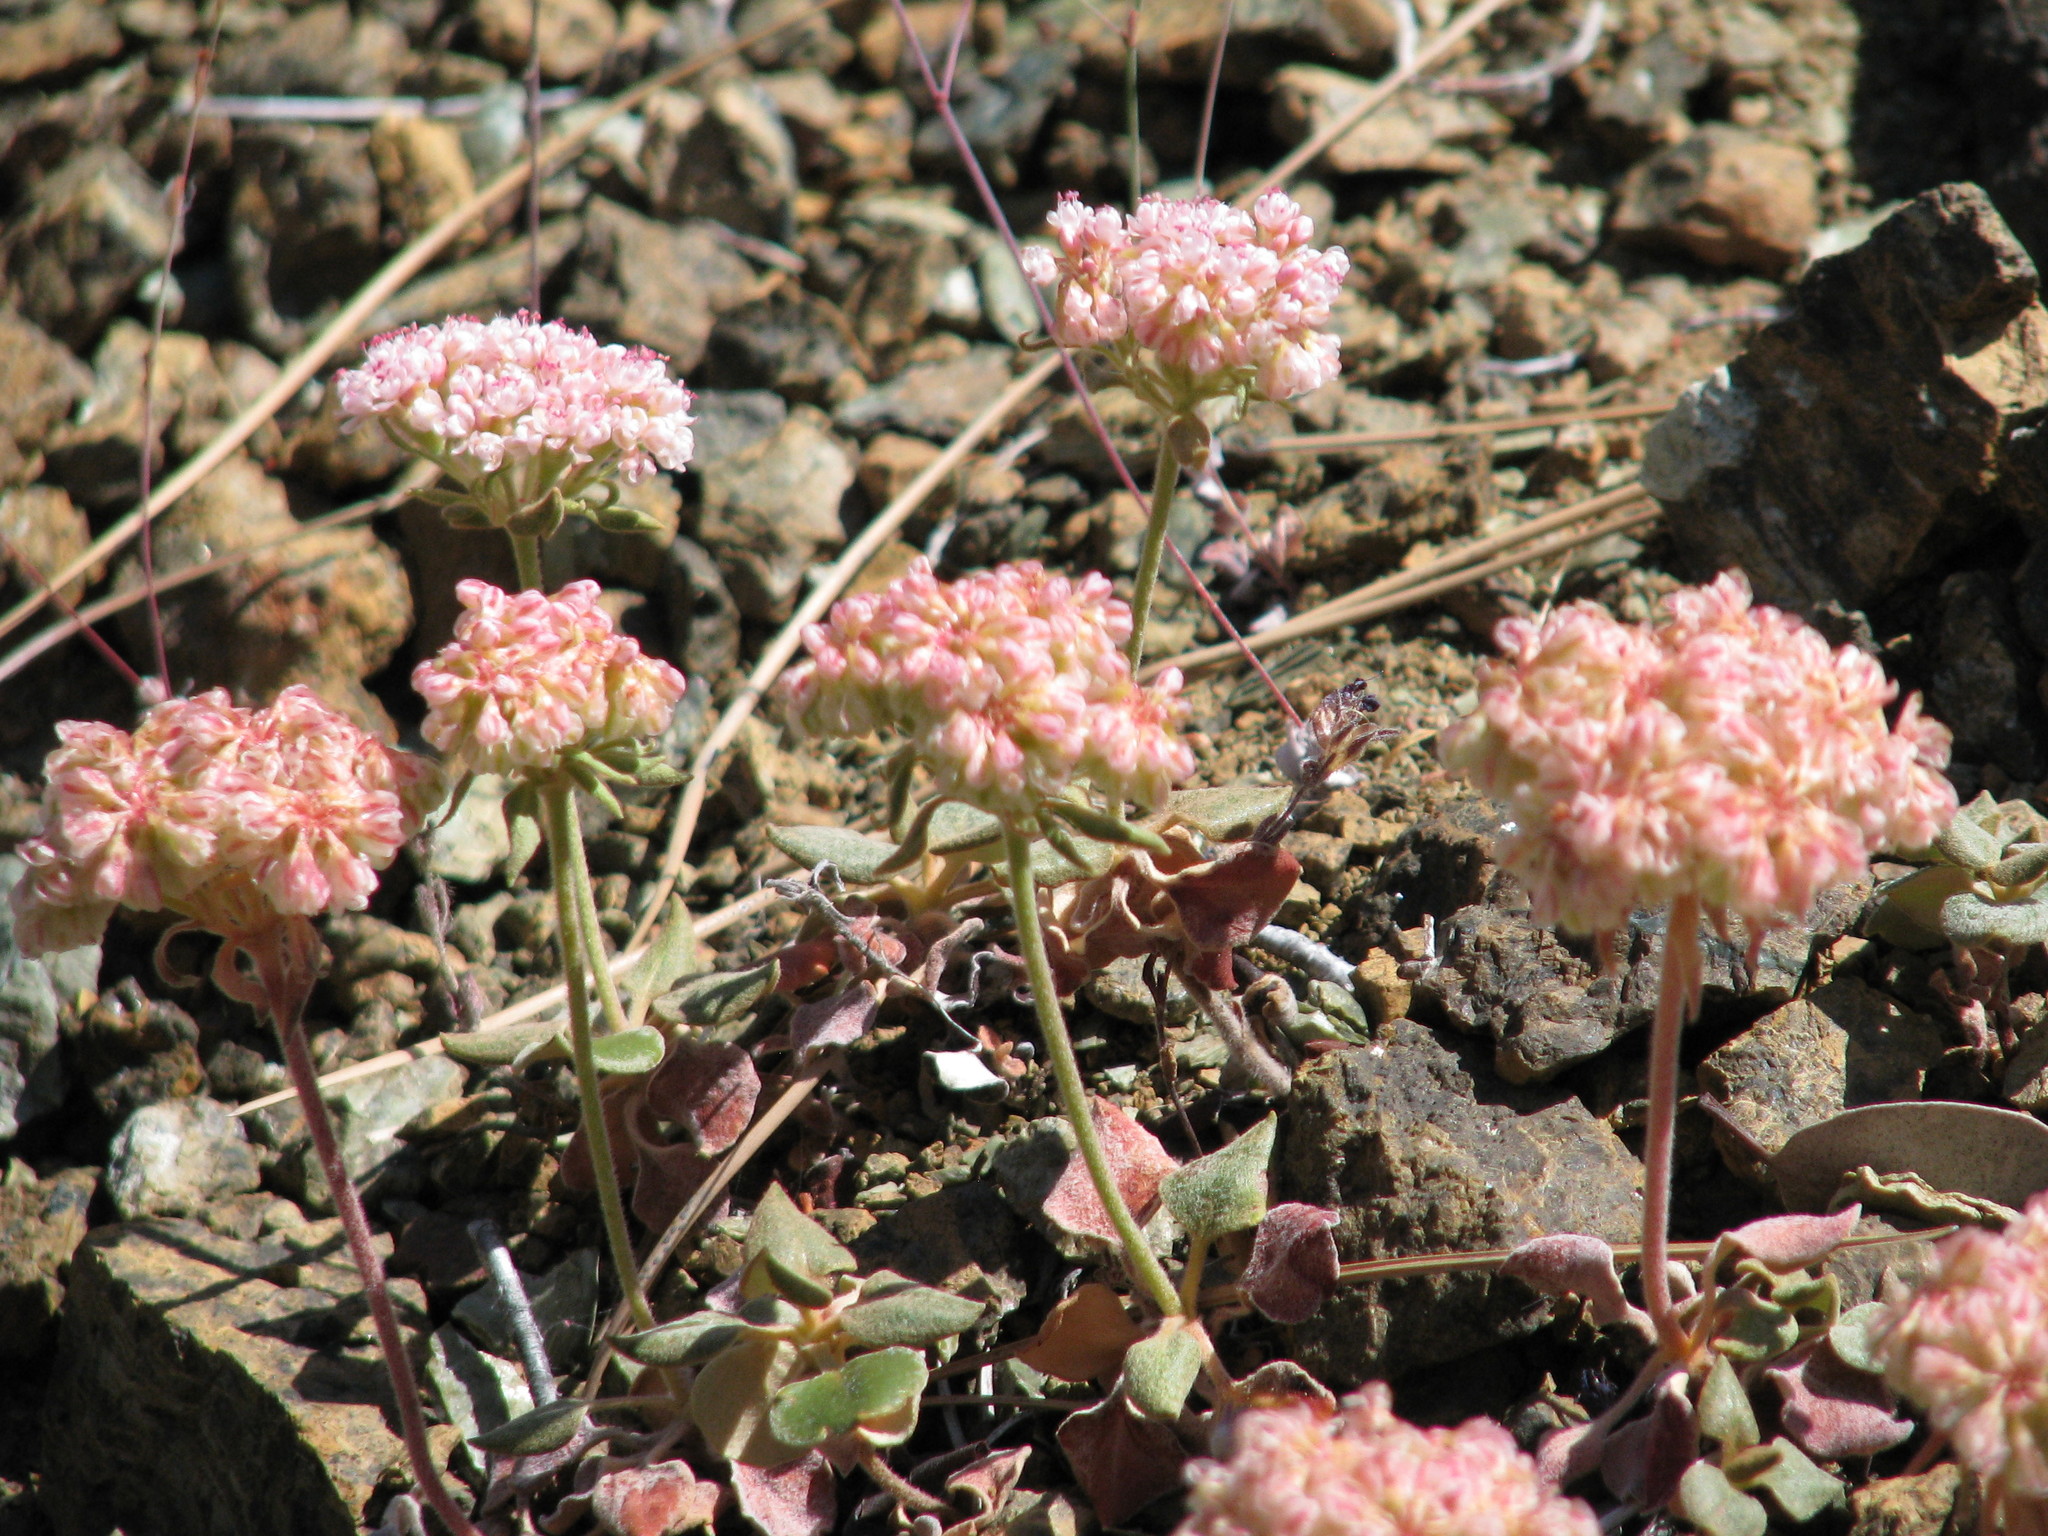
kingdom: Plantae
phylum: Tracheophyta
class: Magnoliopsida
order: Caryophyllales
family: Polygonaceae
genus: Eriogonum
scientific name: Eriogonum nervulosum
